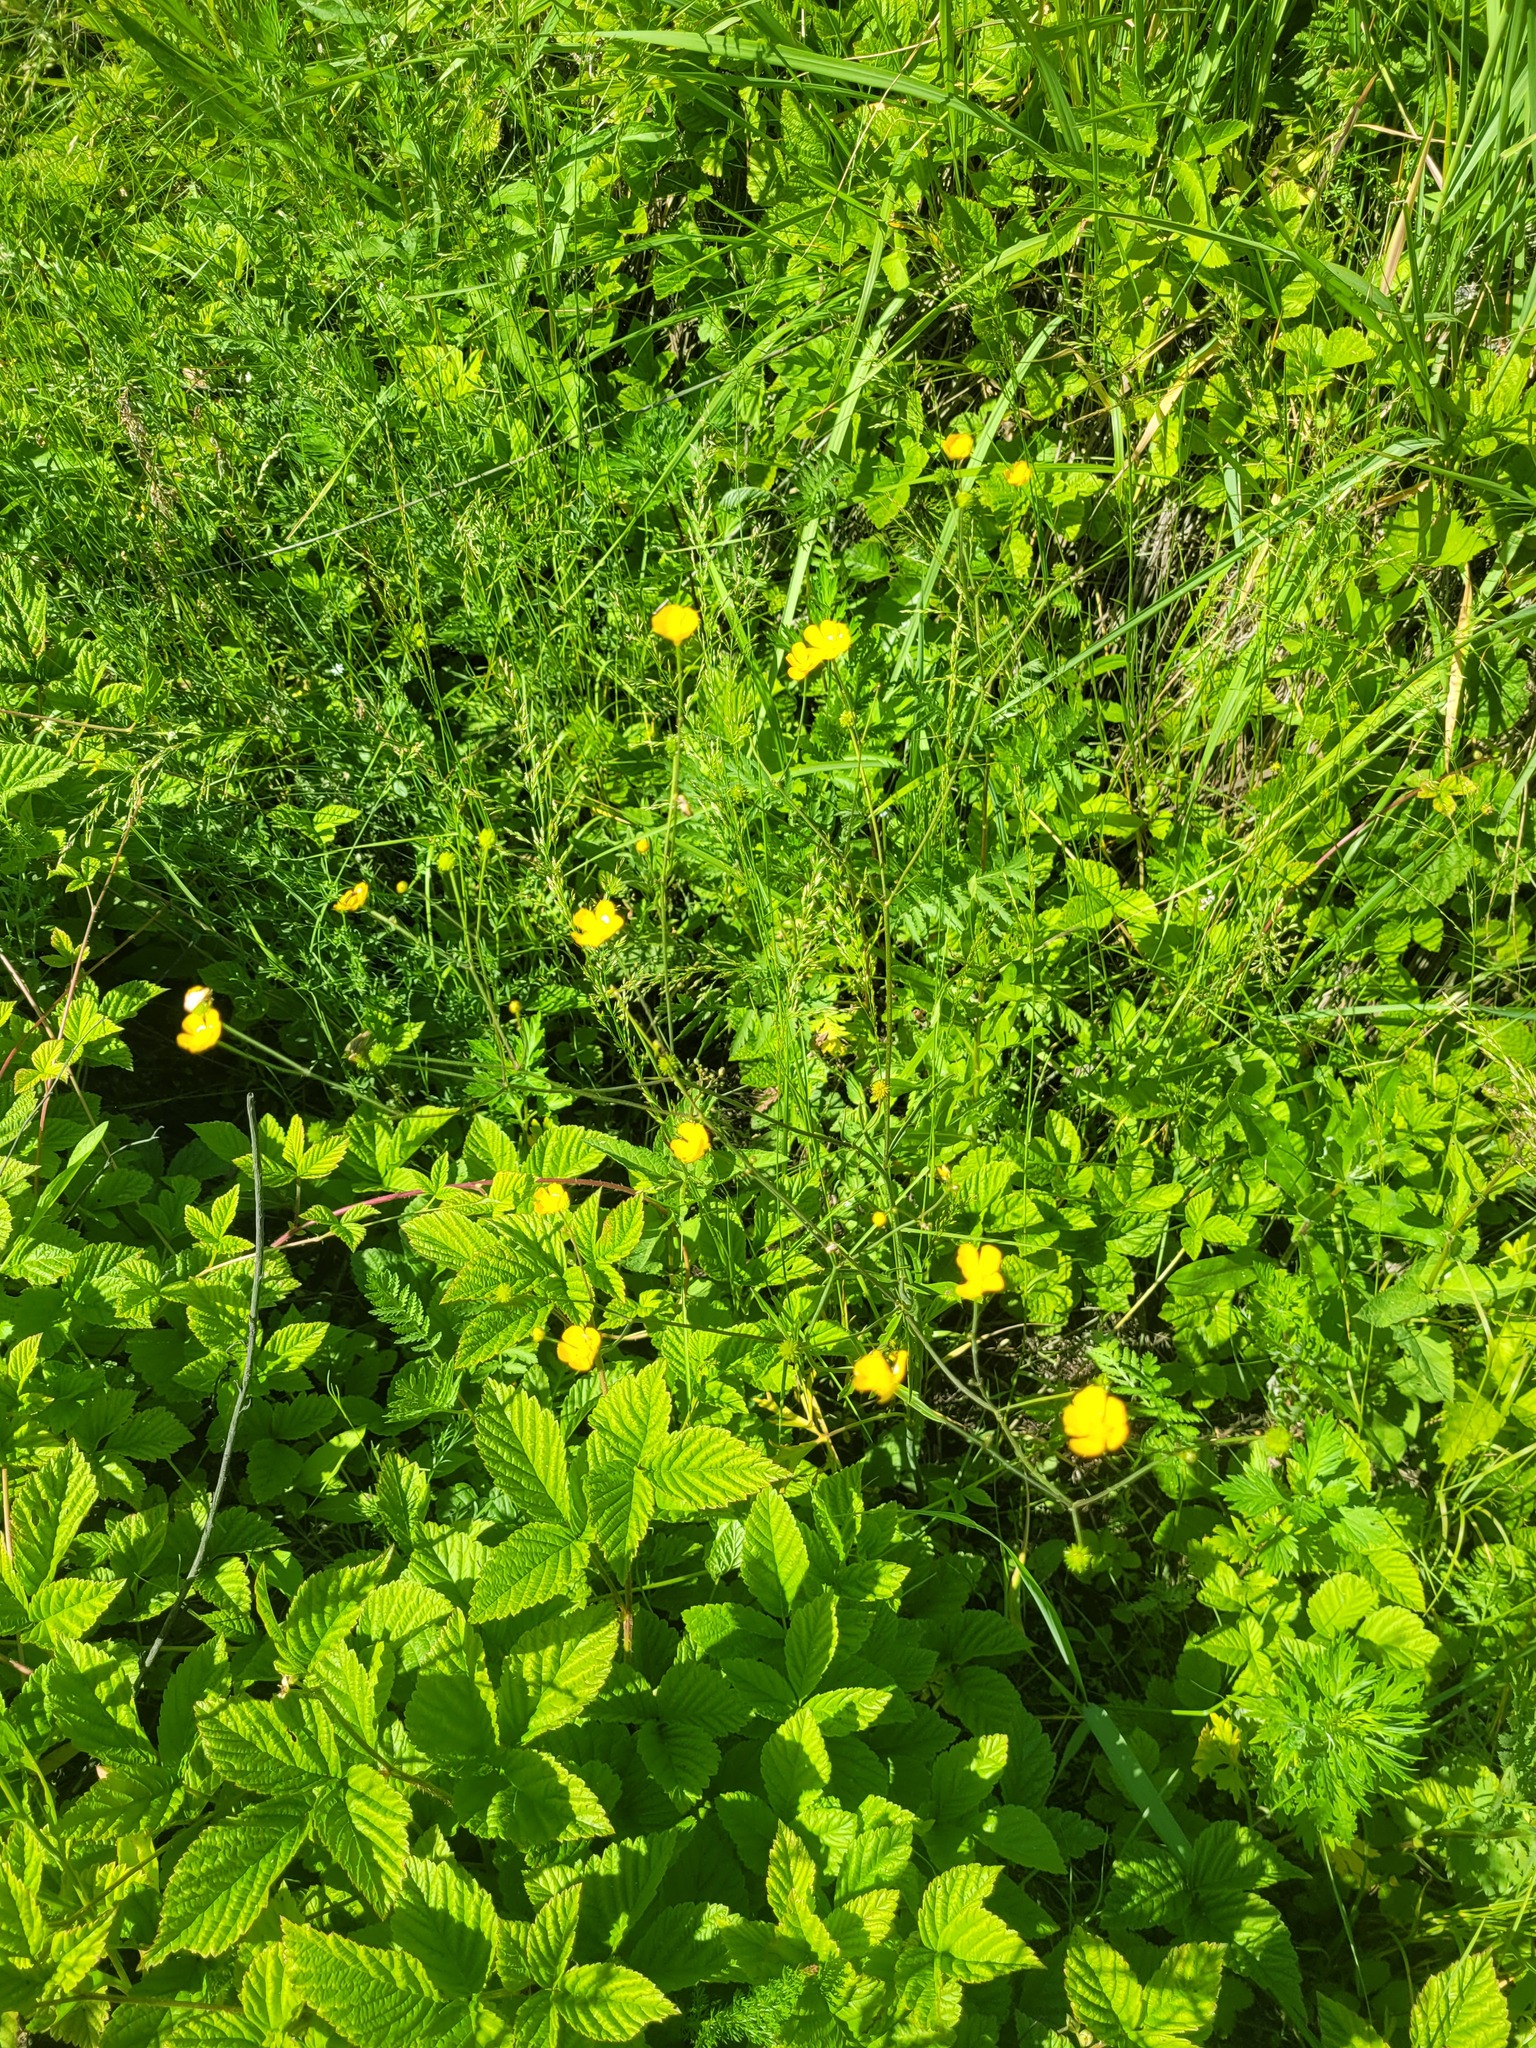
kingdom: Plantae
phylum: Tracheophyta
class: Magnoliopsida
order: Ranunculales
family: Ranunculaceae
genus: Ranunculus
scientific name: Ranunculus acris
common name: Meadow buttercup
